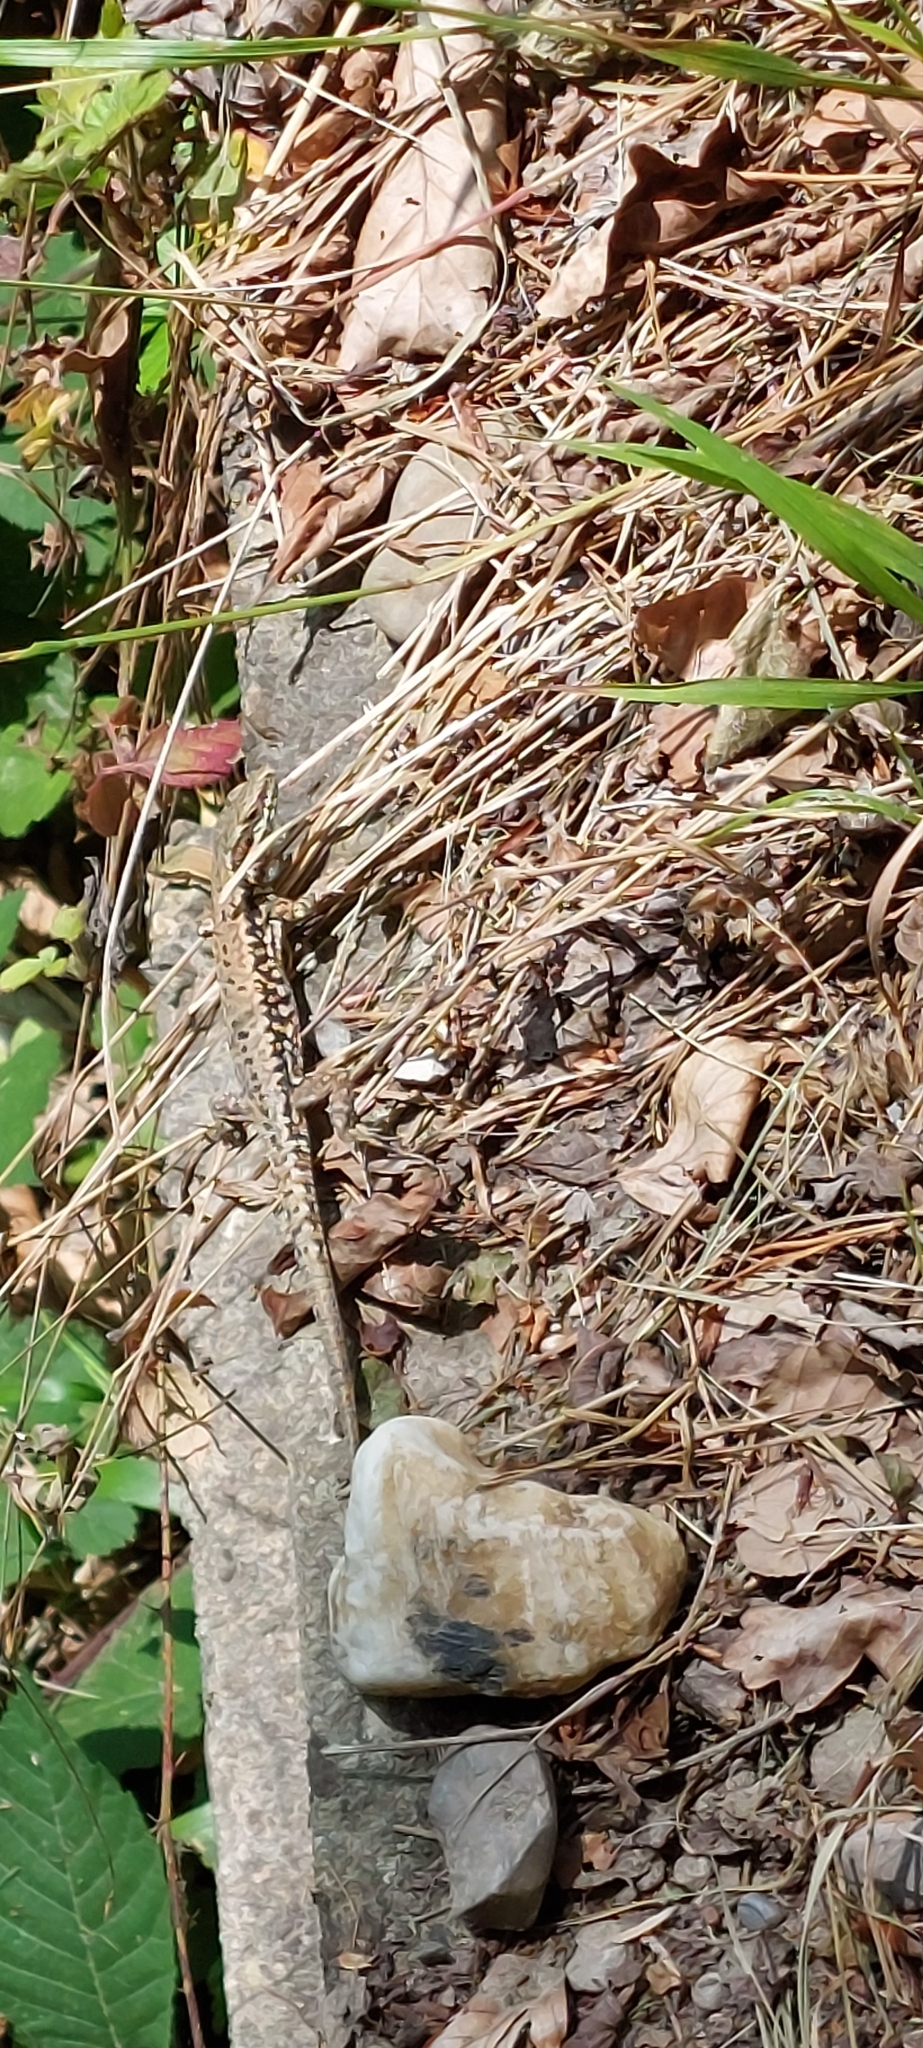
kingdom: Animalia
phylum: Chordata
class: Squamata
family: Lacertidae
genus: Podarcis
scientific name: Podarcis muralis
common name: Common wall lizard
